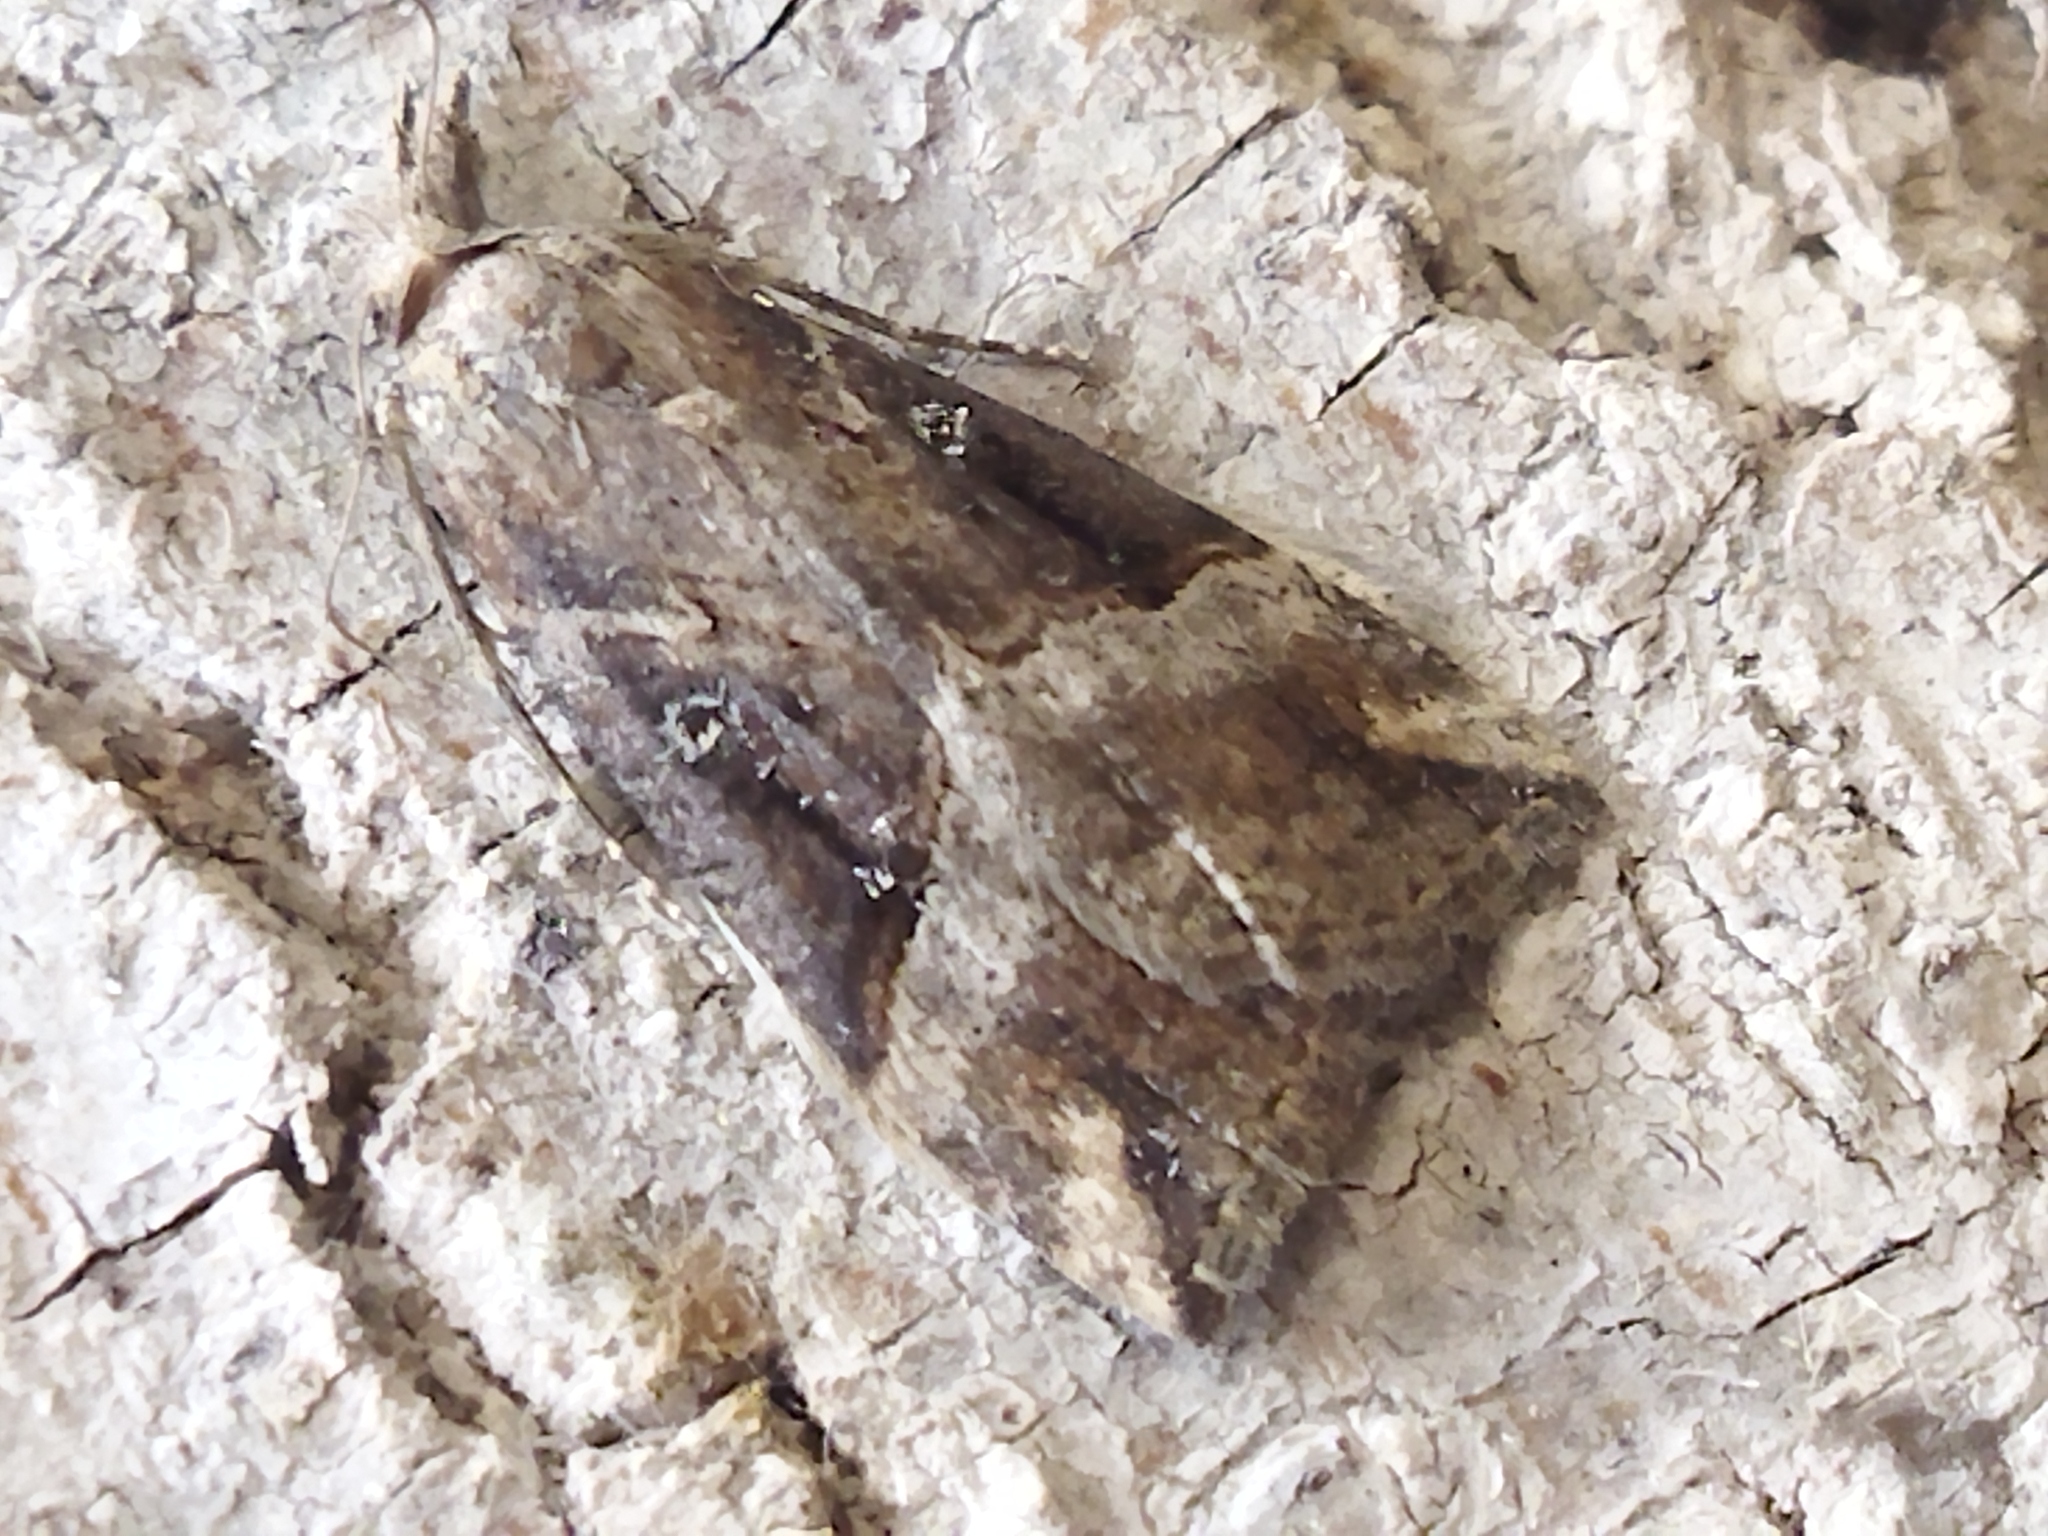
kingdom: Animalia
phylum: Arthropoda
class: Insecta
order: Lepidoptera
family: Erebidae
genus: Hypena
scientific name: Hypena rostralis
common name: Buttoned snout
